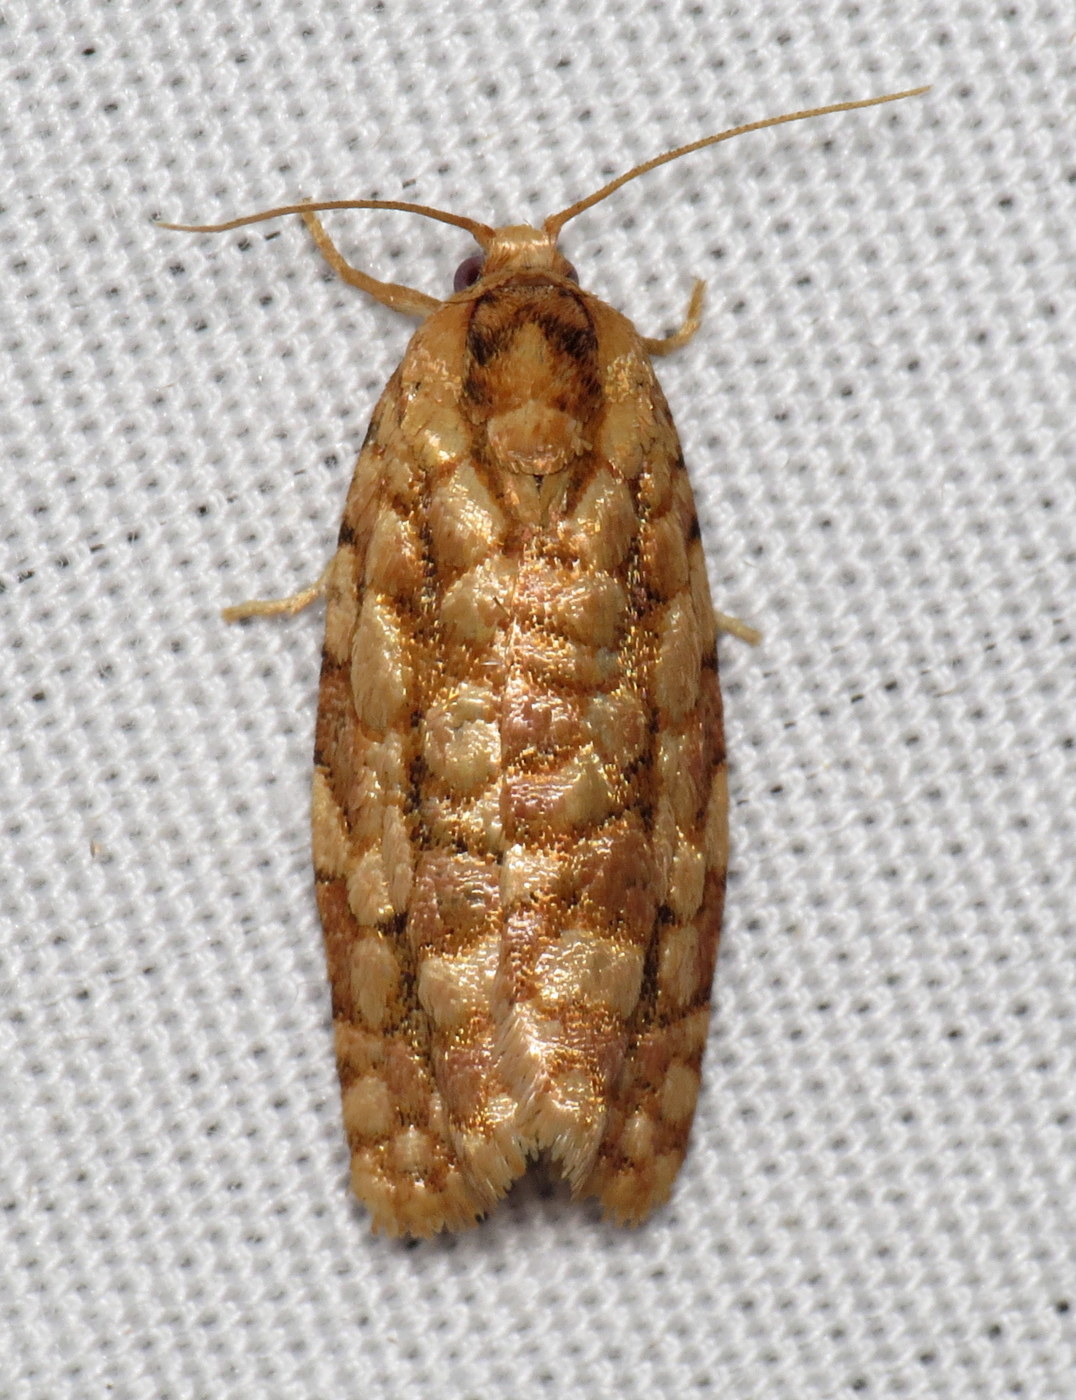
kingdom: Animalia
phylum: Arthropoda
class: Insecta
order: Lepidoptera
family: Tortricidae
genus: Choristoneura
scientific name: Choristoneura houstonana
